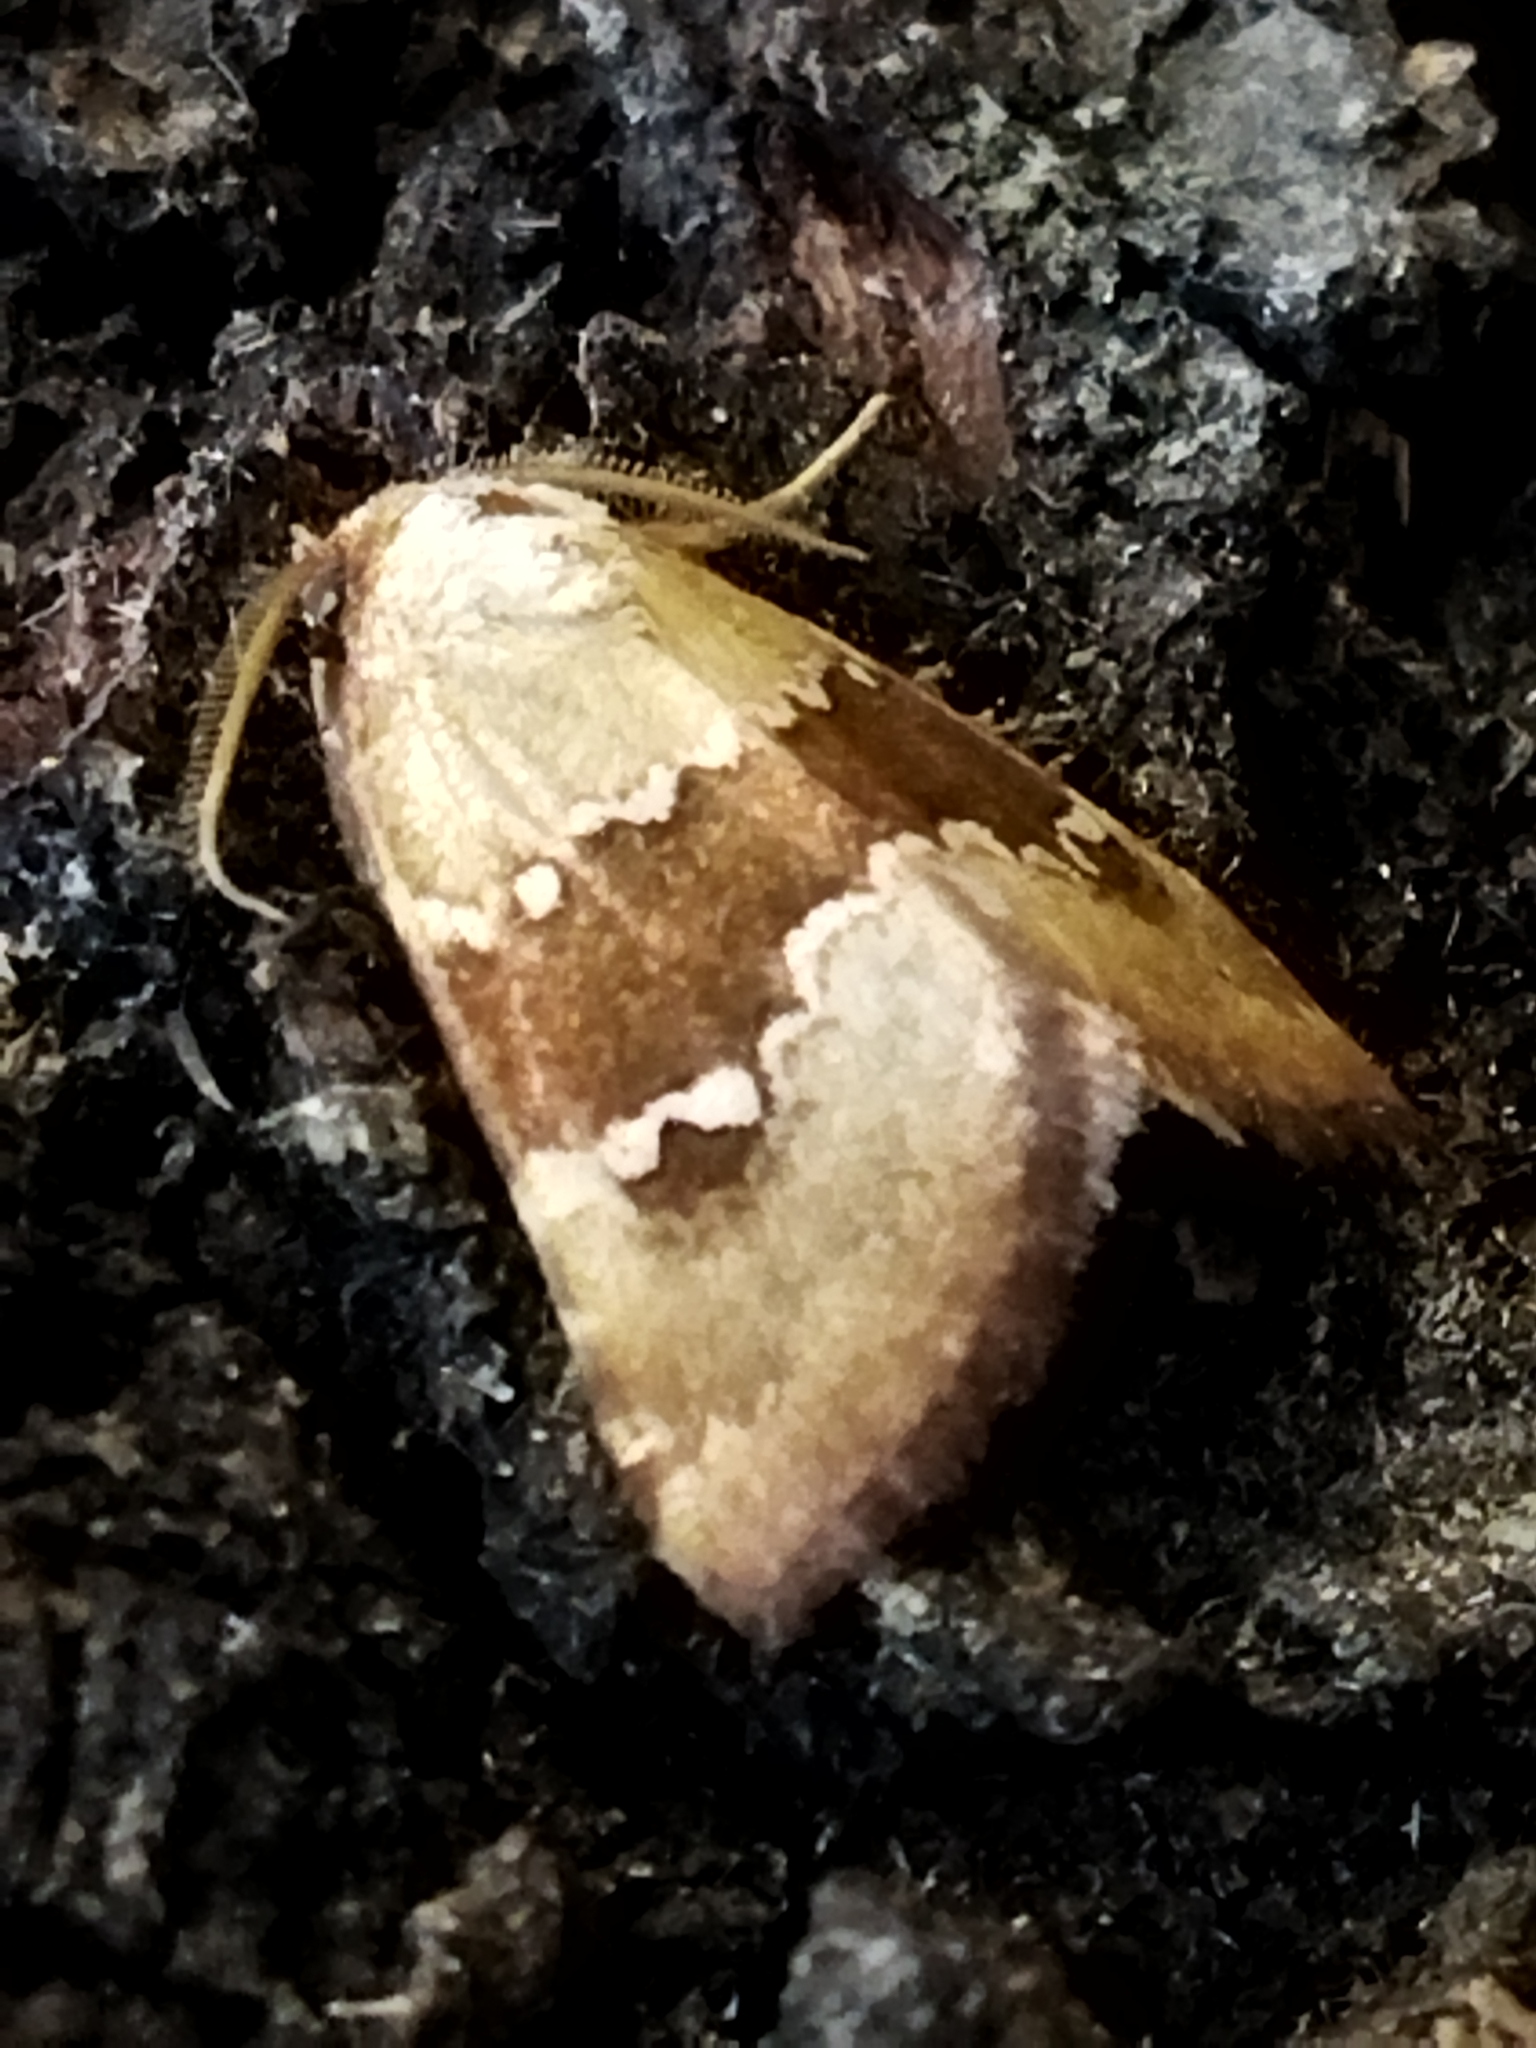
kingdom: Animalia
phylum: Arthropoda
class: Insecta
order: Lepidoptera
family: Noctuidae
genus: Haemerosia
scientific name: Haemerosia vassilininei
